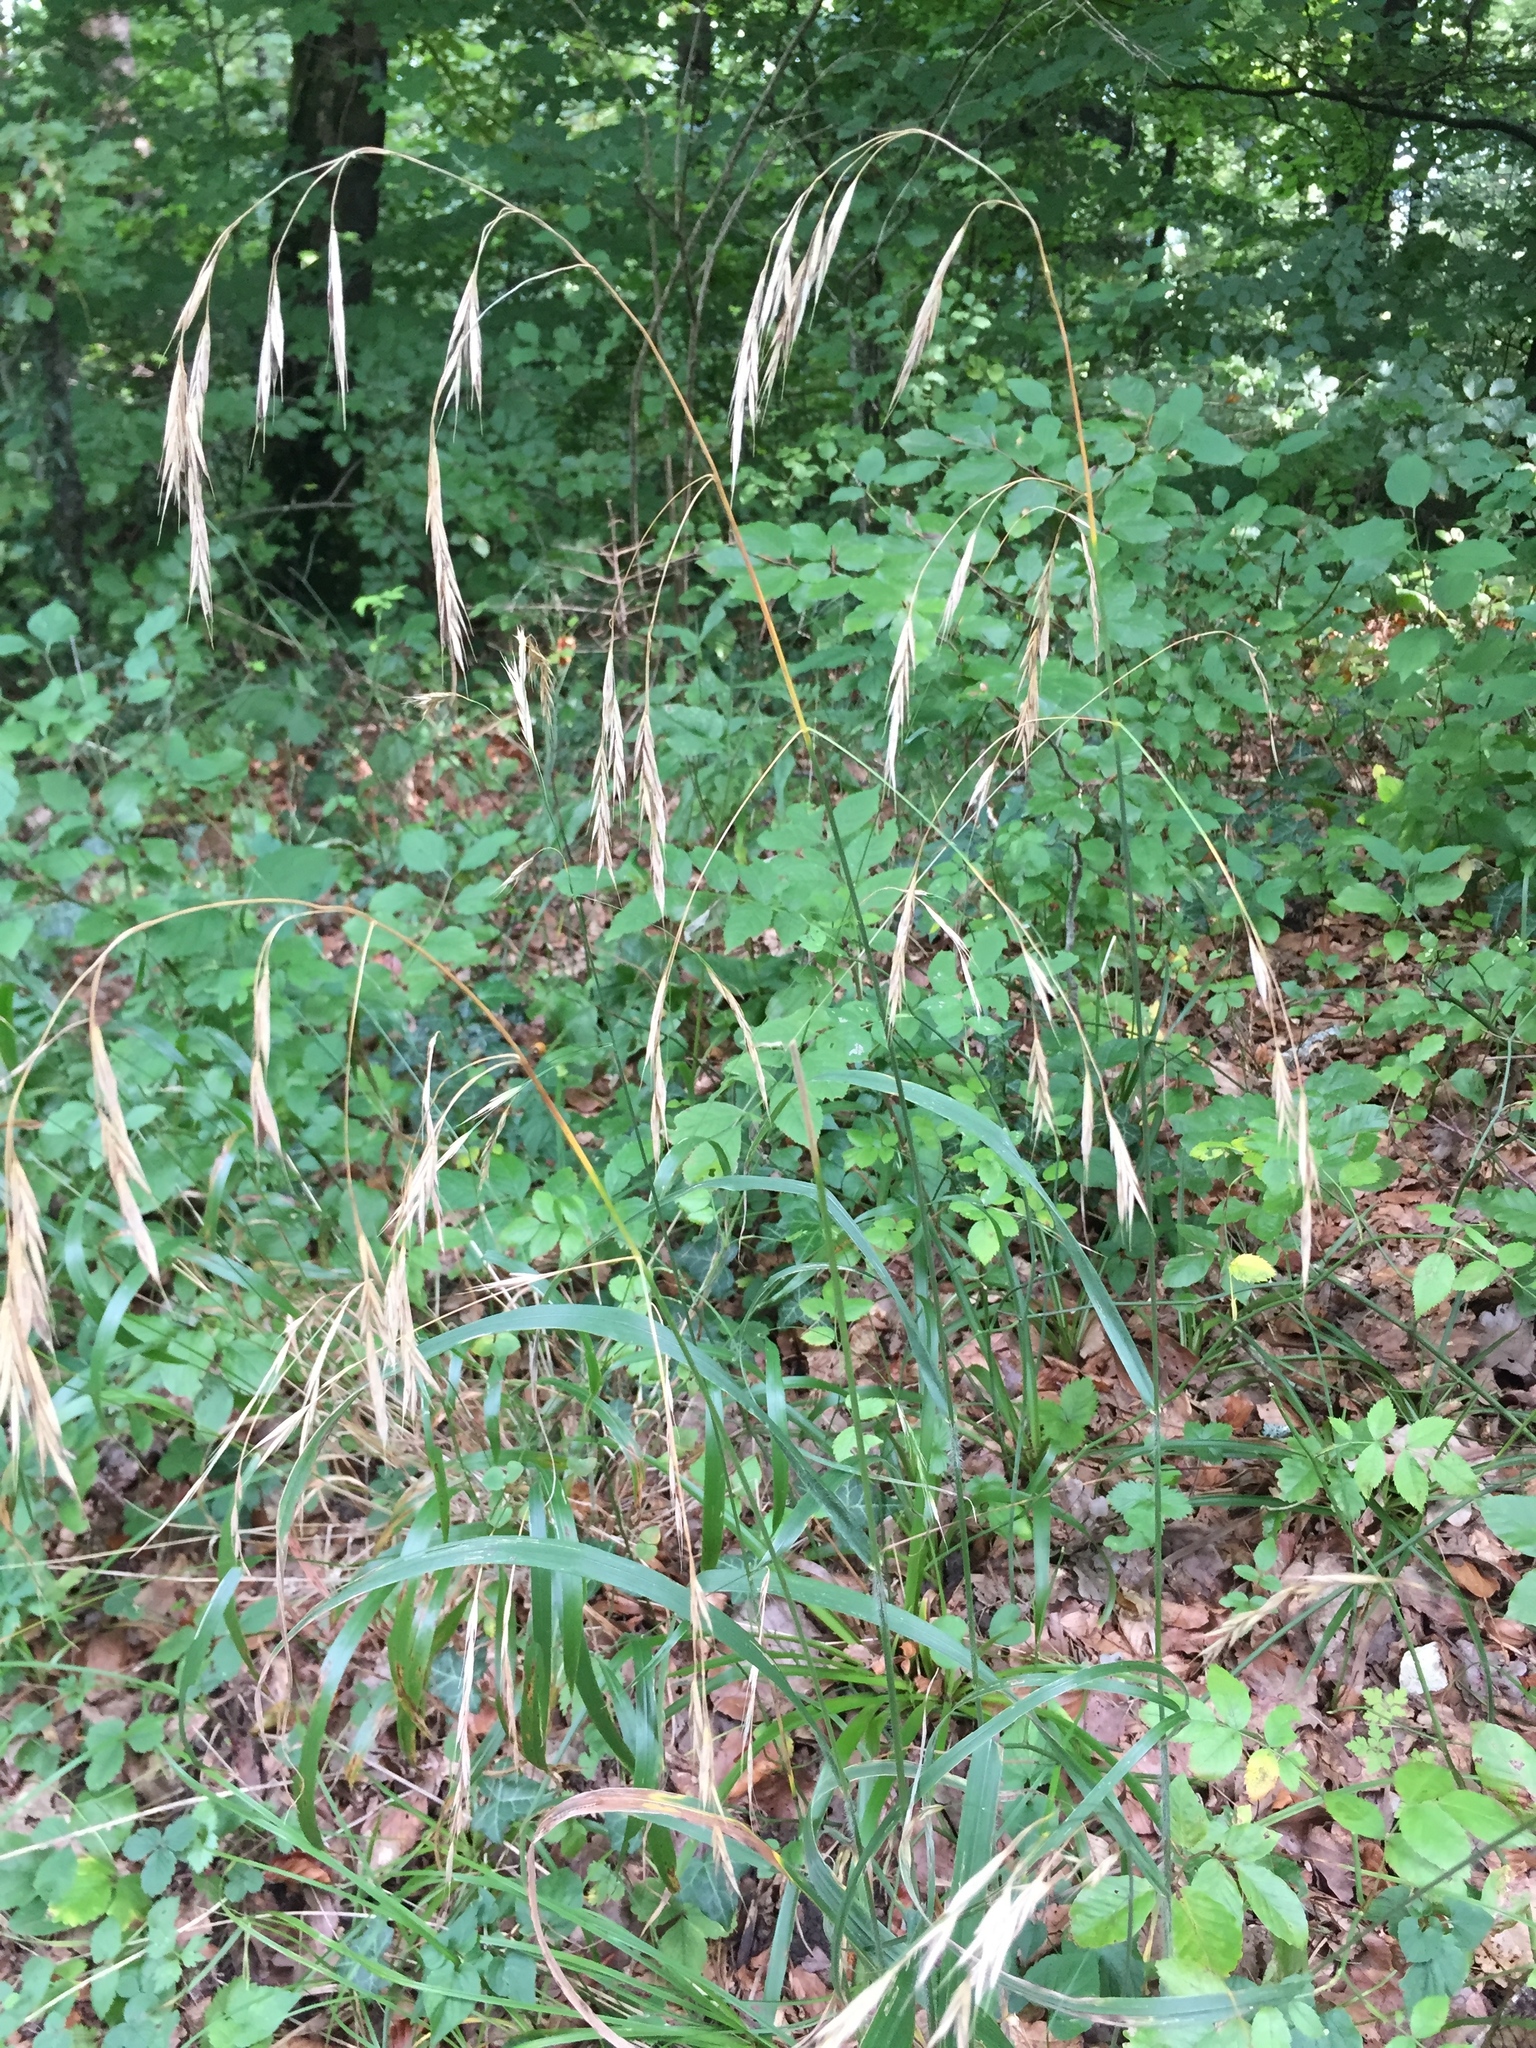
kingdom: Plantae
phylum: Tracheophyta
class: Liliopsida
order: Poales
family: Poaceae
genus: Bromus
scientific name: Bromus ramosus
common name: Hairy brome
